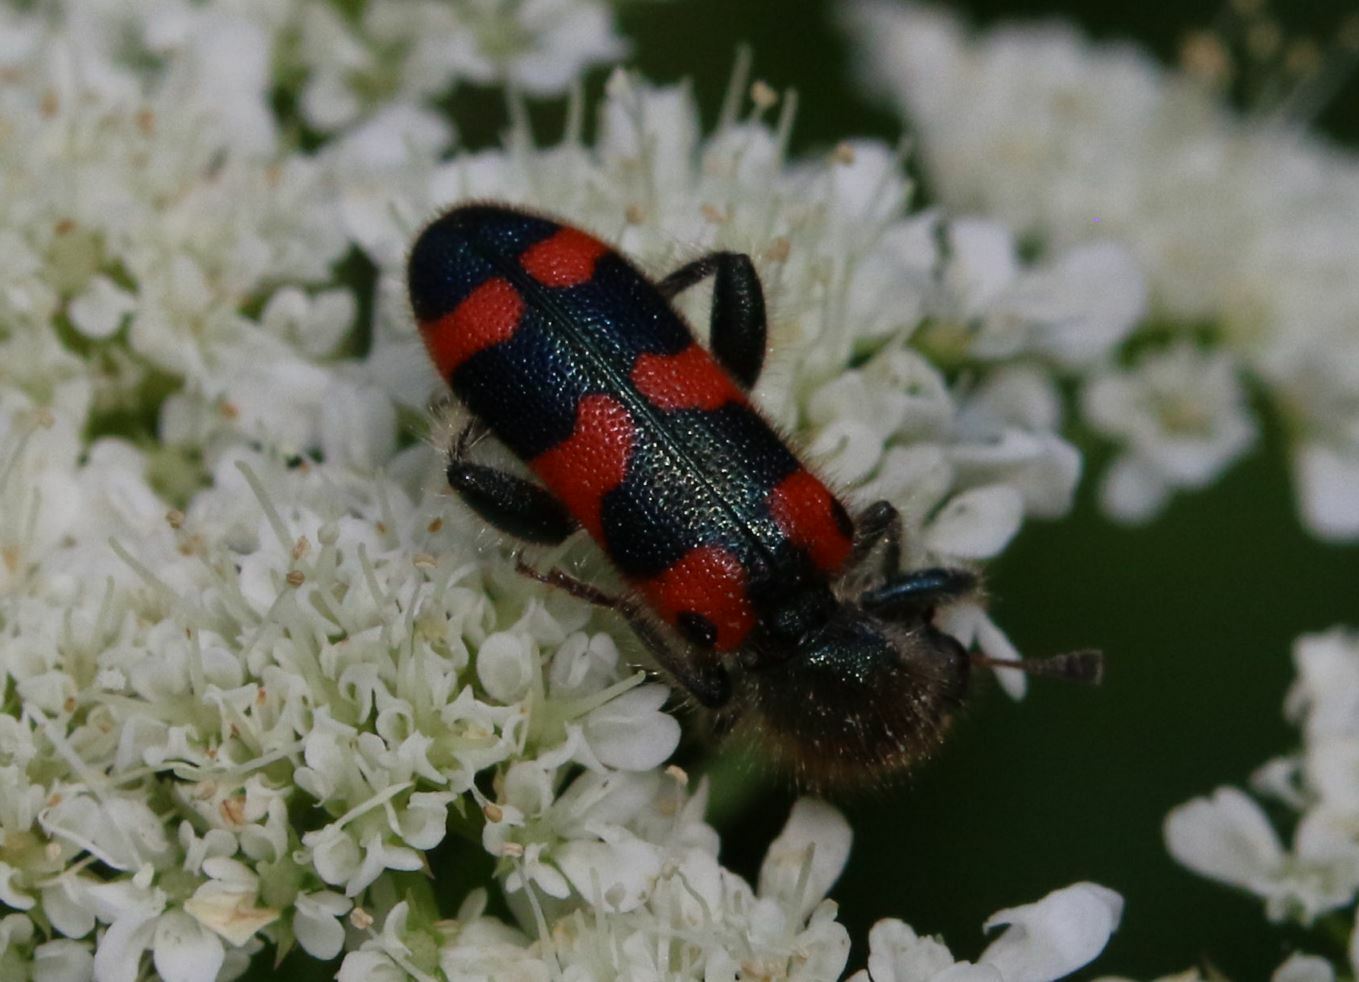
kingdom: Animalia
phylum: Arthropoda
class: Insecta
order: Coleoptera
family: Cleridae
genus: Trichodes
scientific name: Trichodes leucopsideus
